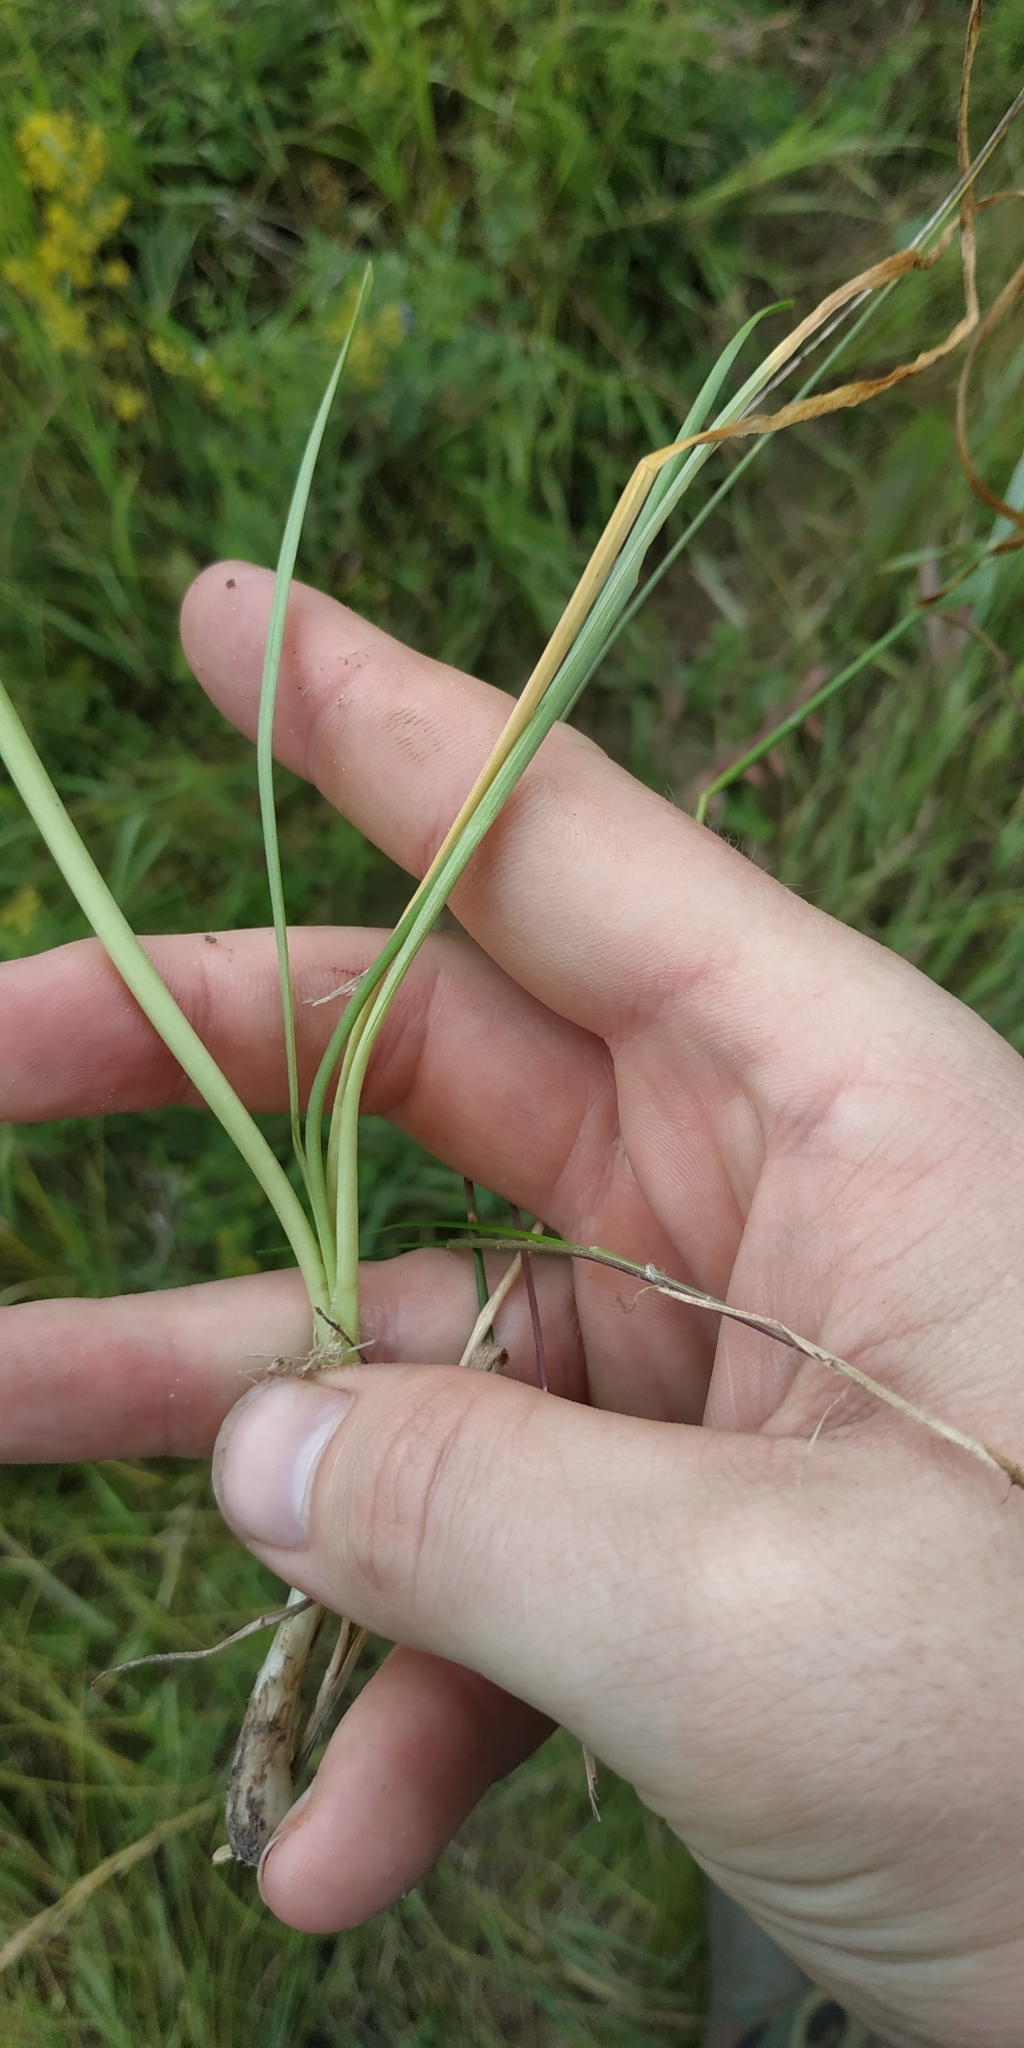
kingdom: Plantae
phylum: Tracheophyta
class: Liliopsida
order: Asparagales
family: Amaryllidaceae
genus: Allium
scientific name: Allium angulosum
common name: Mouse garlic
